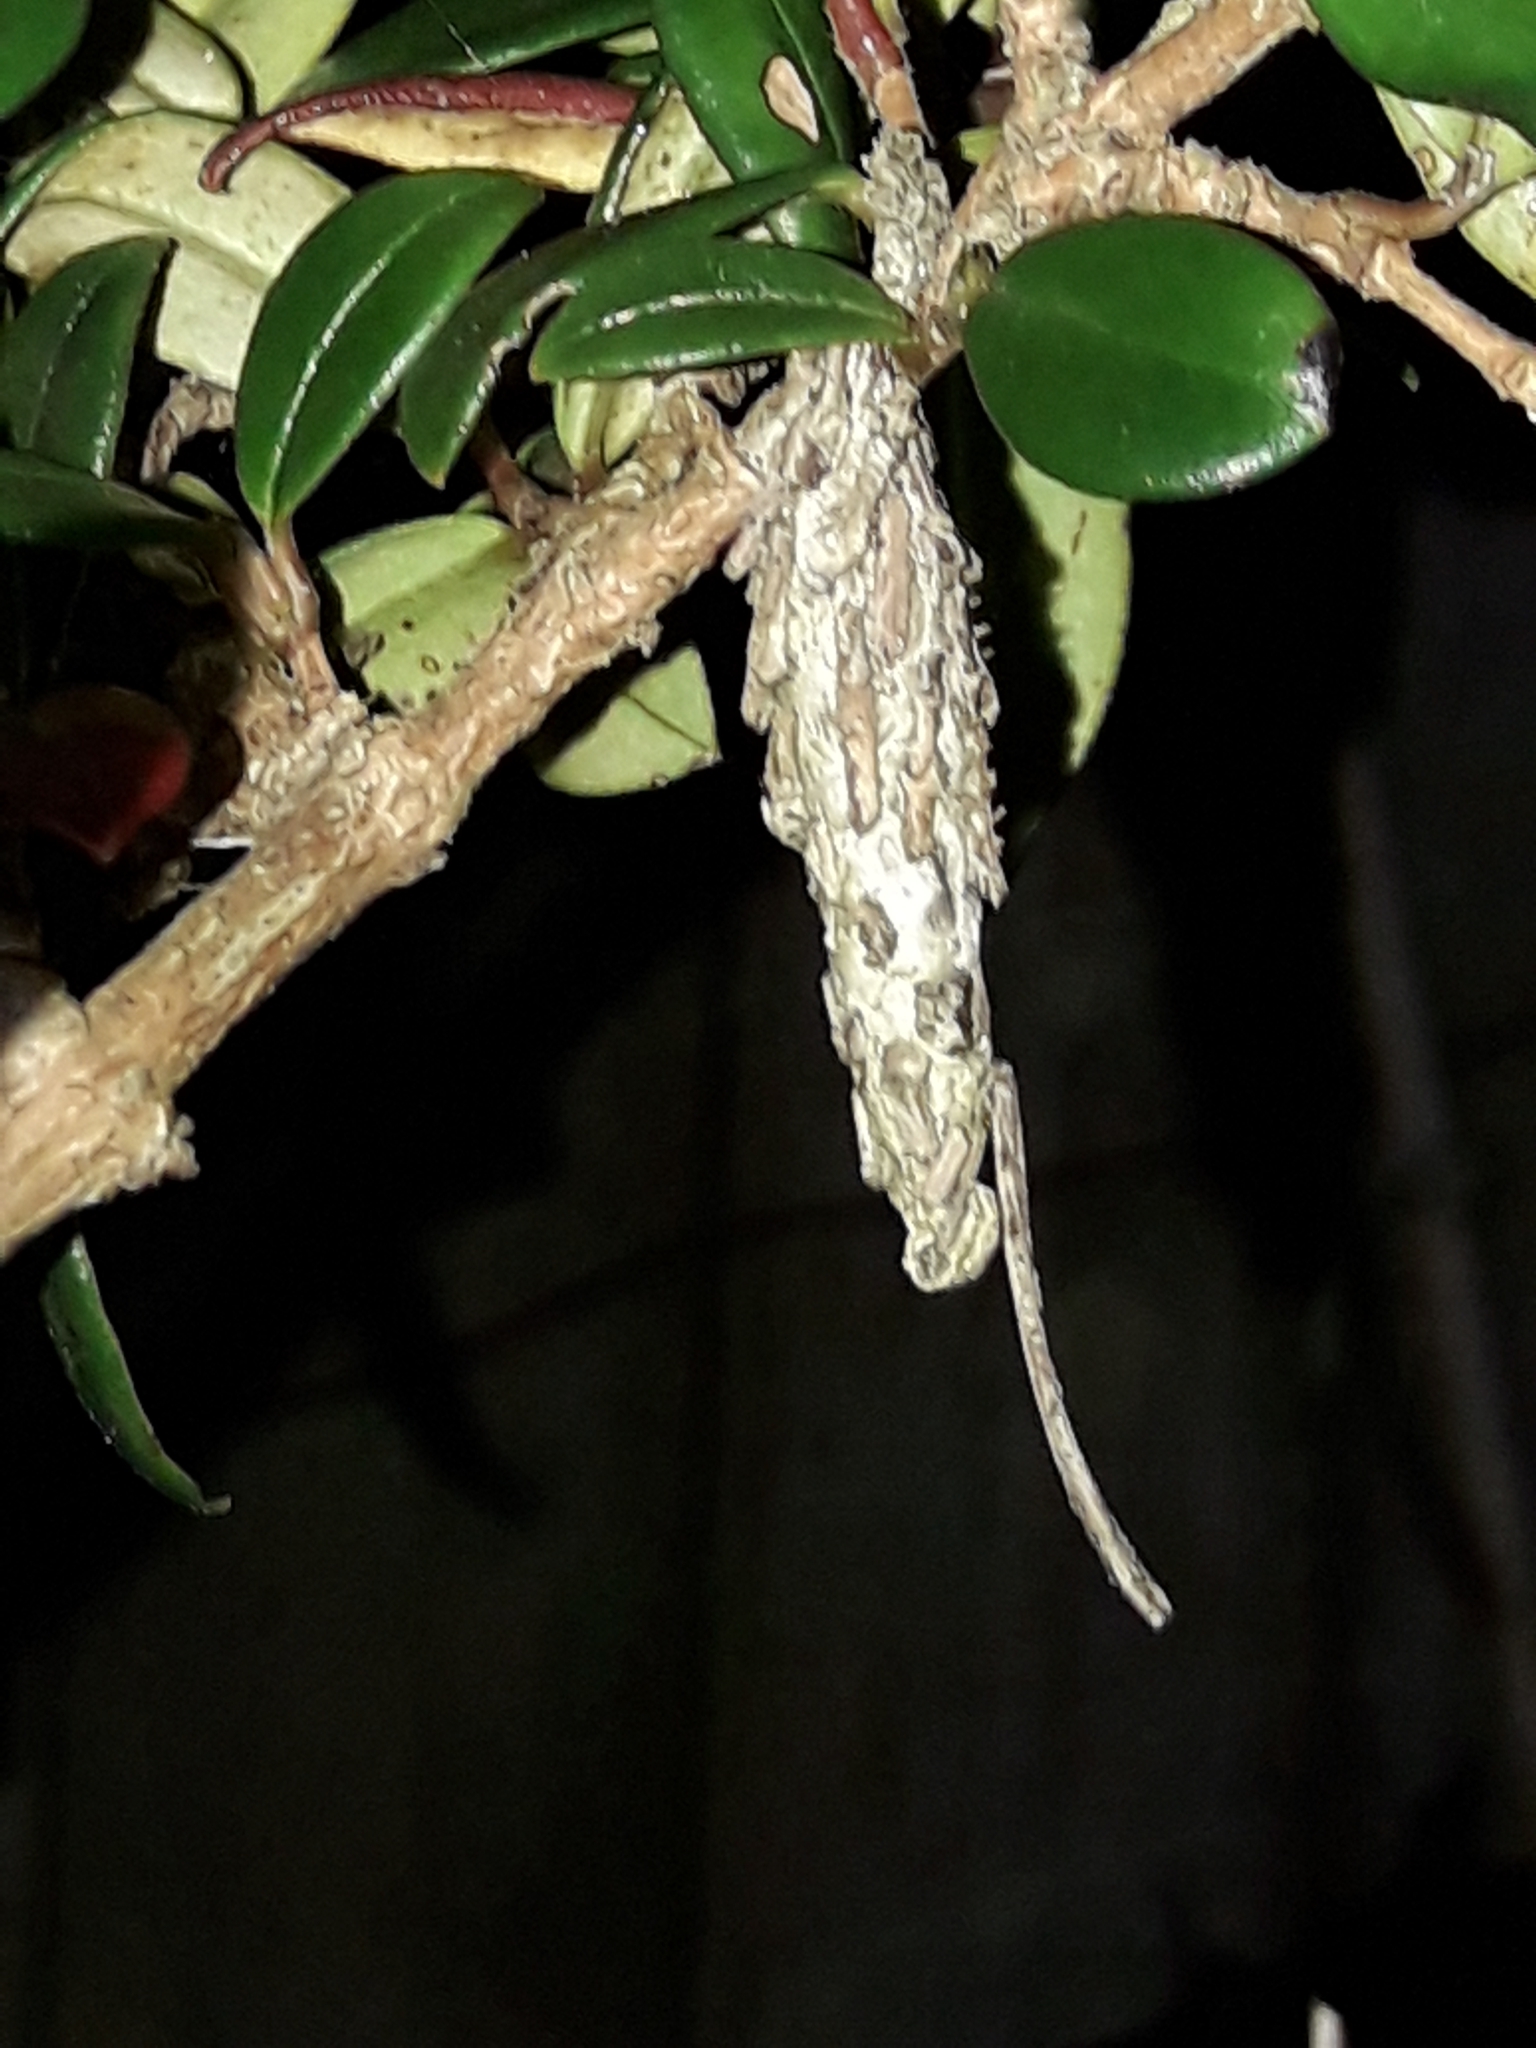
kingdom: Animalia
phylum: Arthropoda
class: Insecta
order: Lepidoptera
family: Psychidae
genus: Liothula
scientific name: Liothula omnivora
